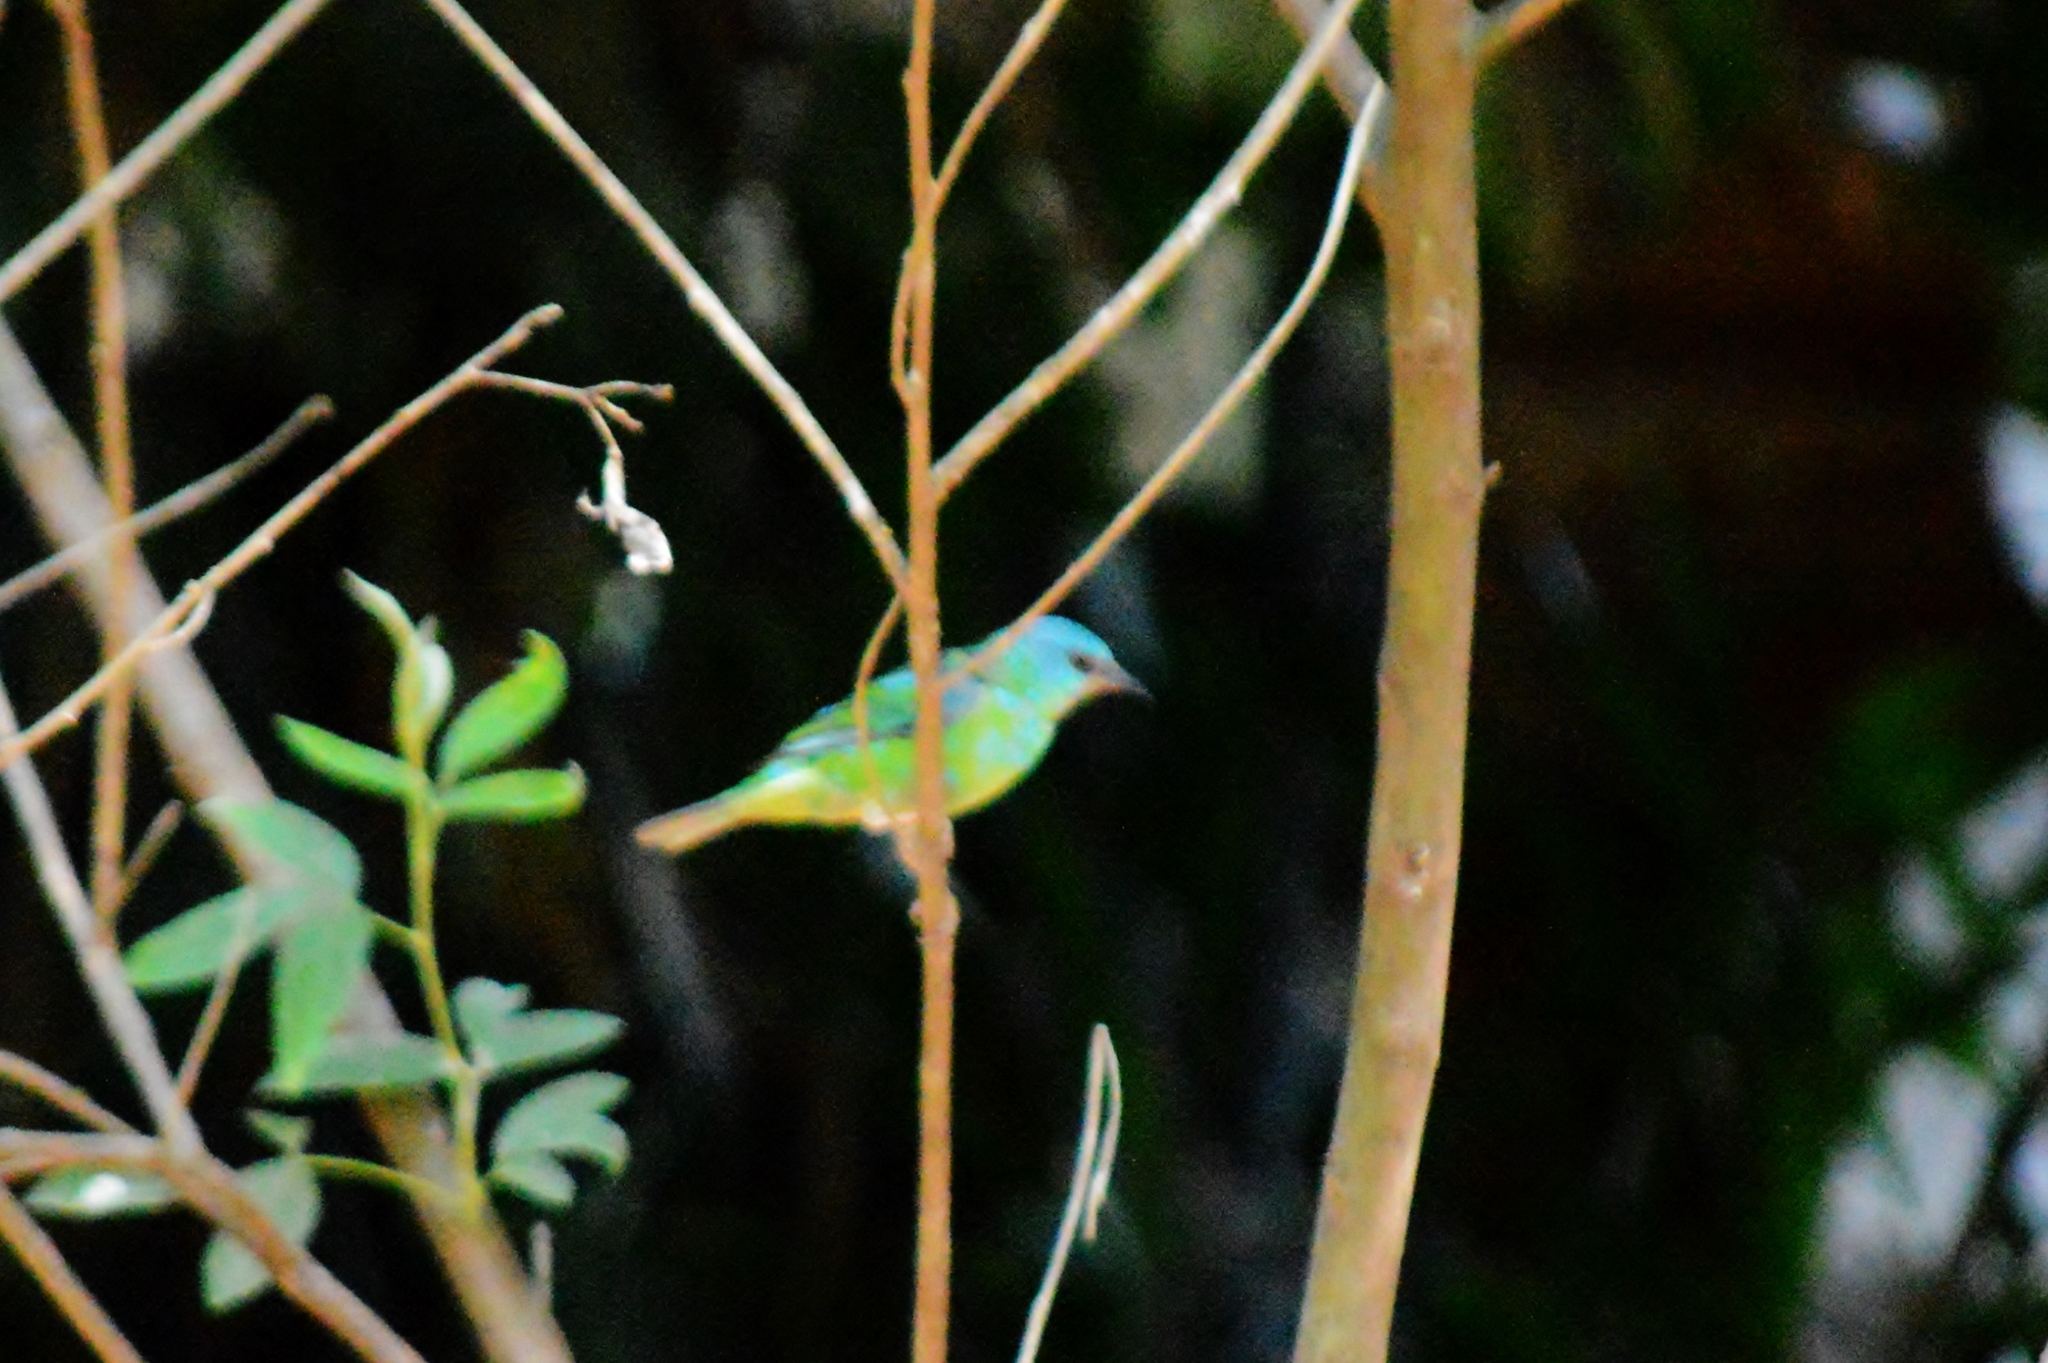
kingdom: Animalia
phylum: Chordata
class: Aves
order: Passeriformes
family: Thraupidae
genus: Dacnis
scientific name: Dacnis cayana
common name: Blue dacnis
